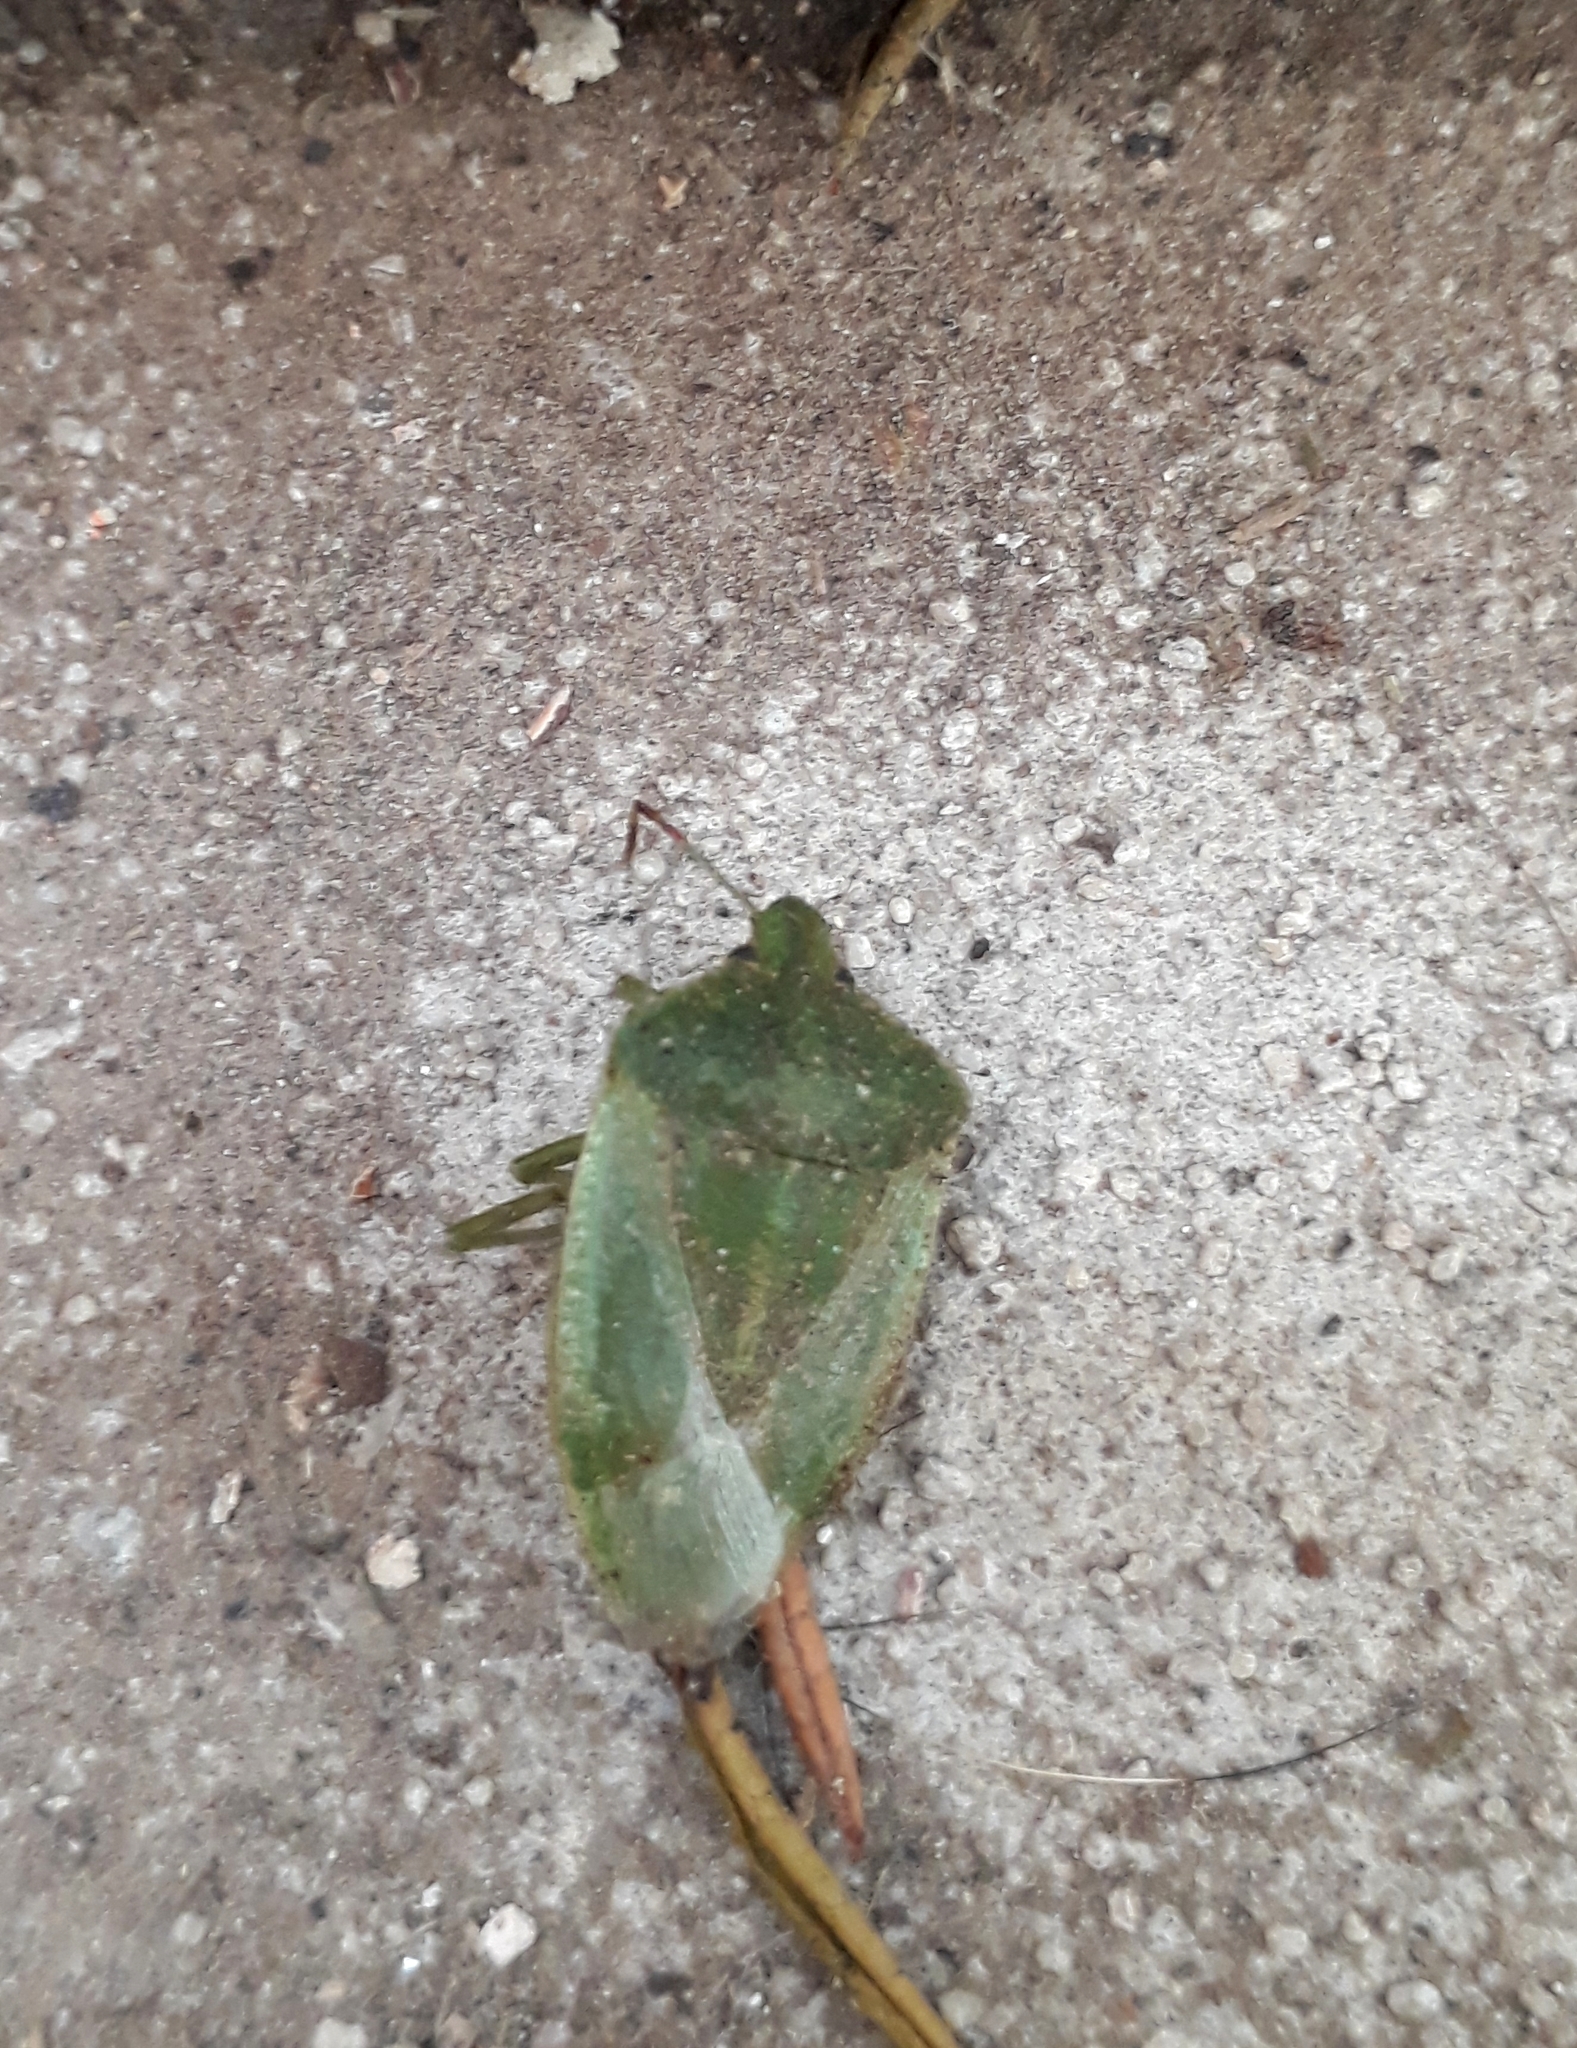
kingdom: Animalia
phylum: Arthropoda
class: Insecta
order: Hemiptera
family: Pentatomidae
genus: Nezara
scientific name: Nezara viridula
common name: Southern green stink bug
